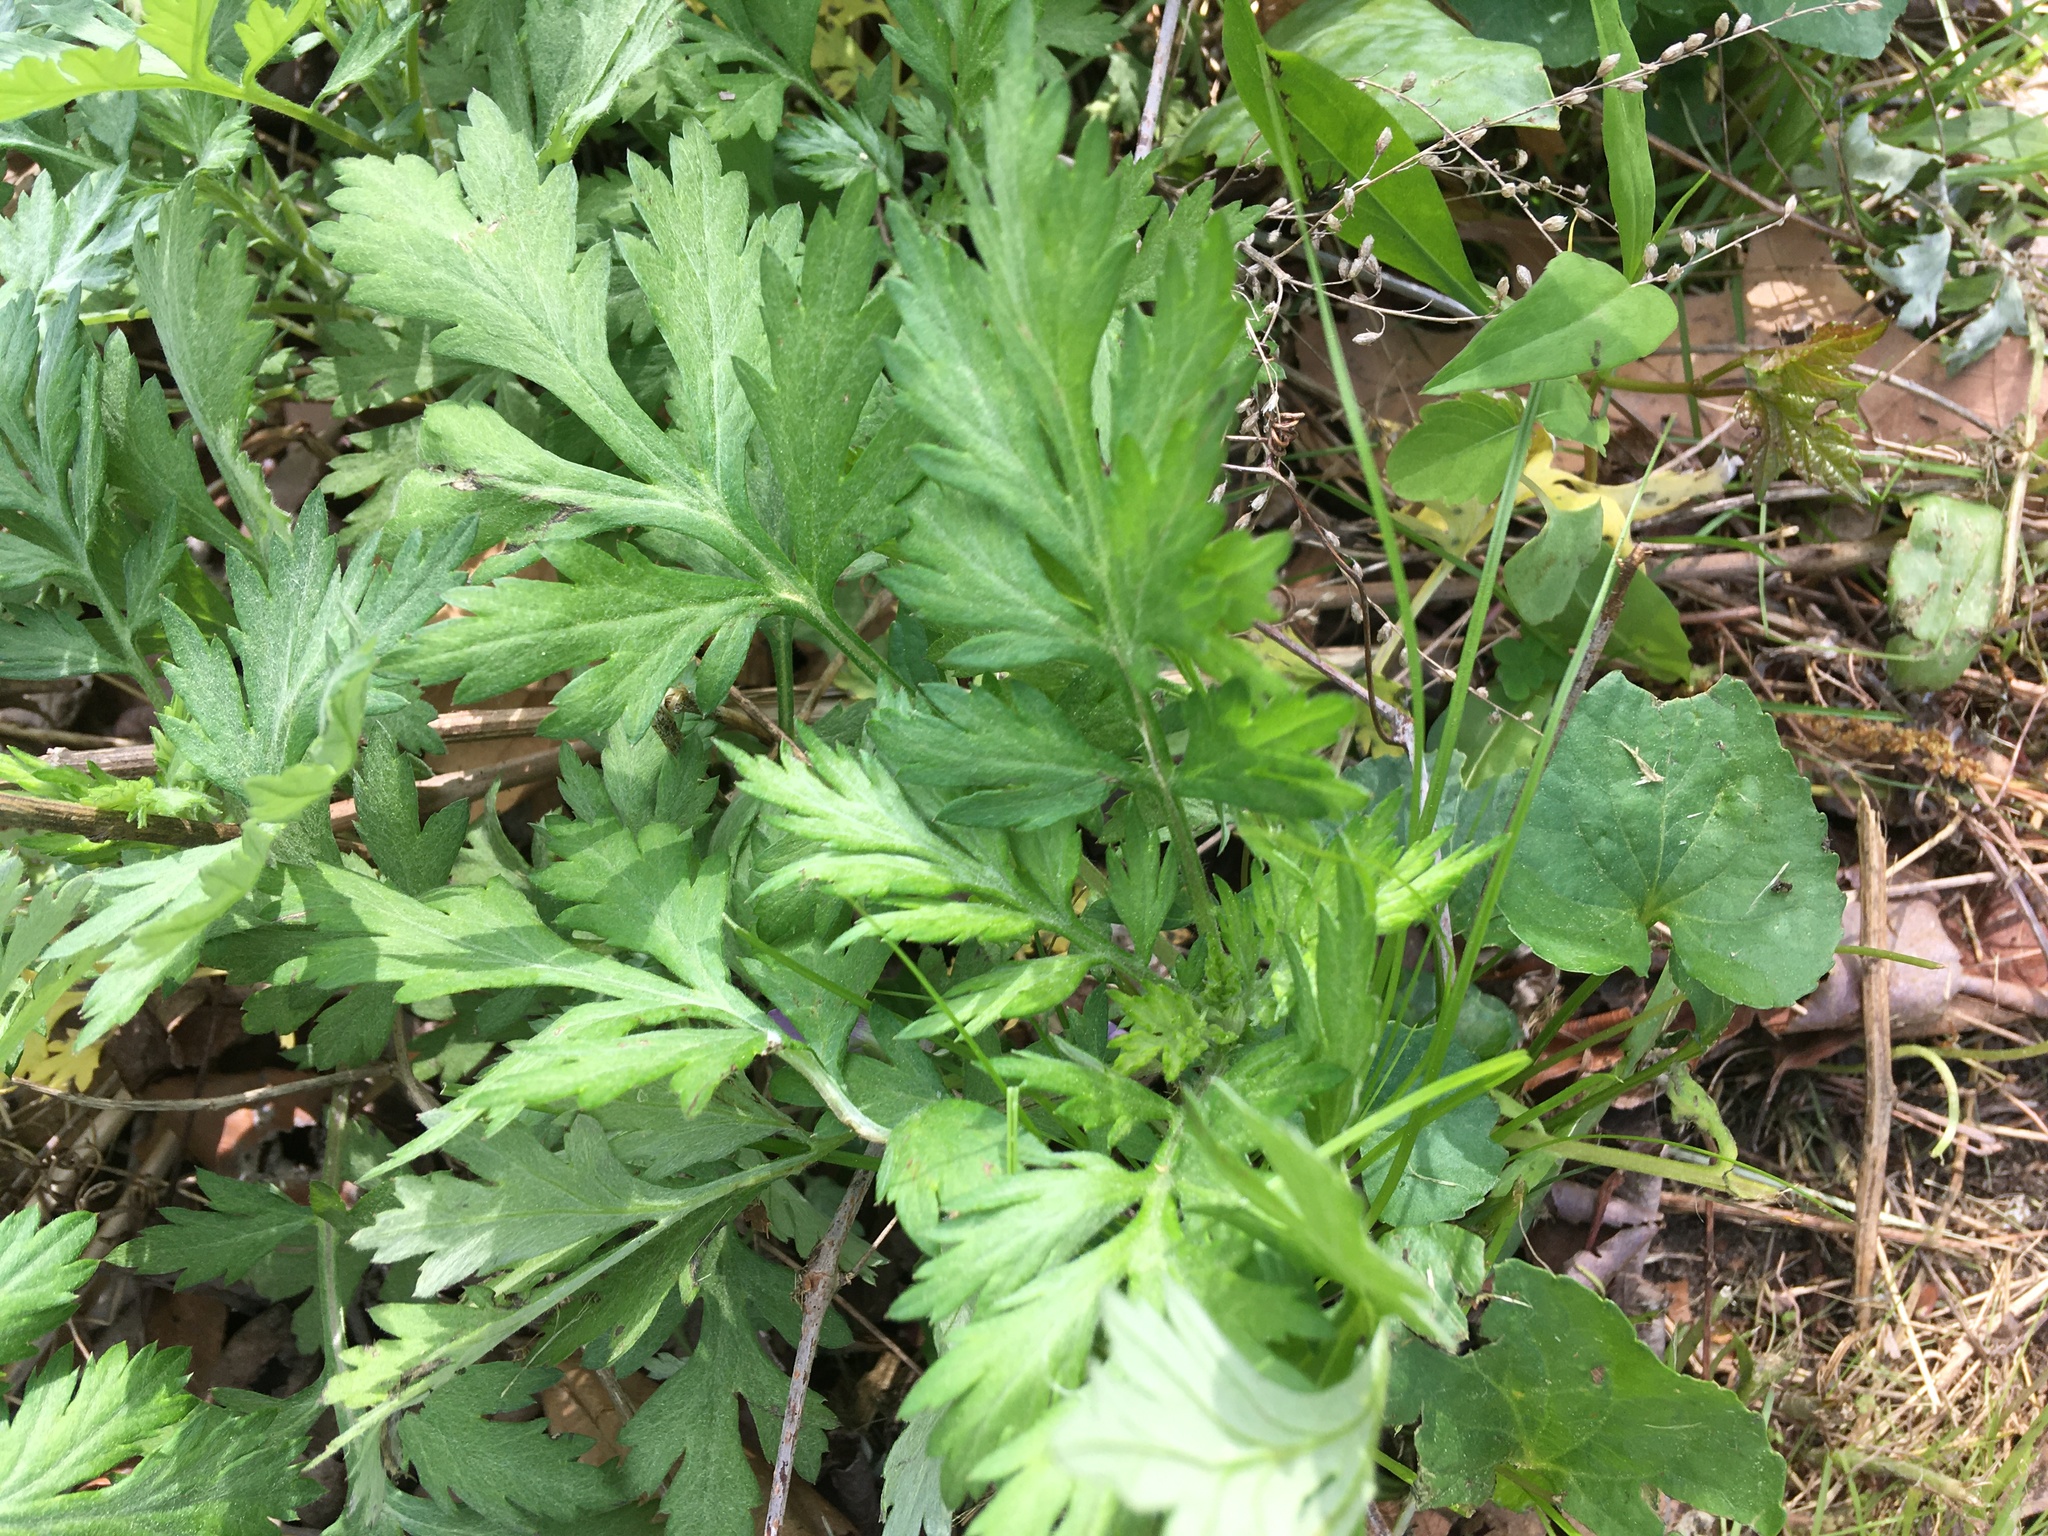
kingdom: Plantae
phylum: Tracheophyta
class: Magnoliopsida
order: Asterales
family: Asteraceae
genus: Artemisia
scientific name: Artemisia vulgaris
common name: Mugwort
